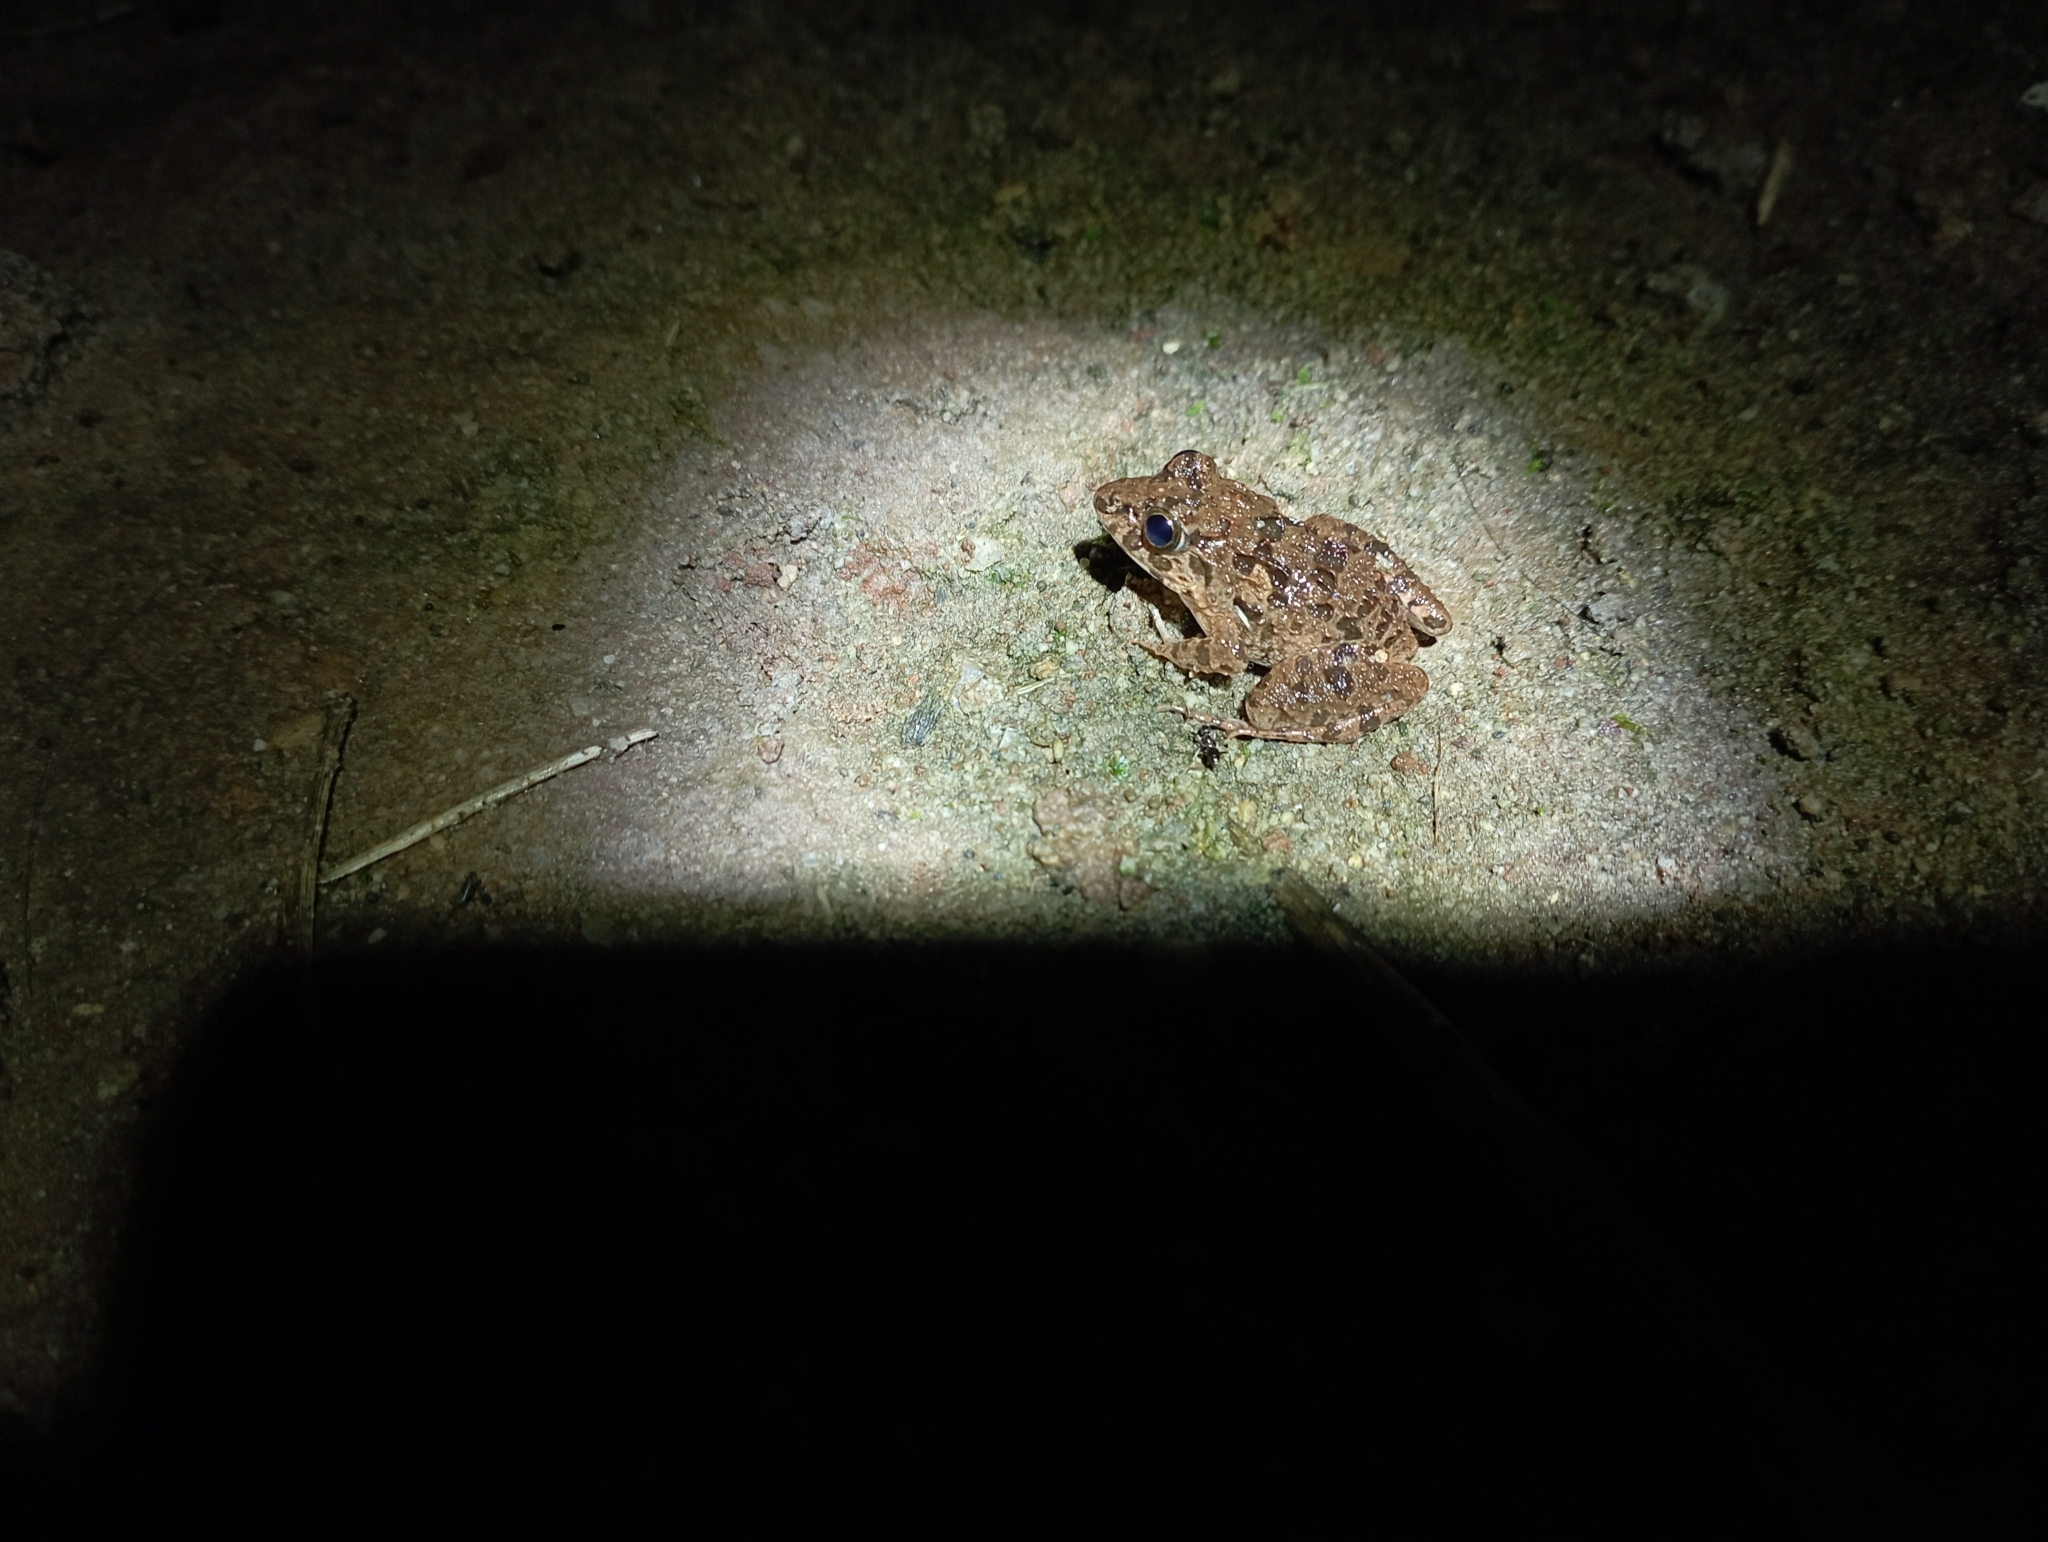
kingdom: Animalia
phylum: Chordata
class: Amphibia
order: Anura
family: Dicroglossidae
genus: Fejervarya
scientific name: Fejervarya limnocharis
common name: Asian grass frog/common pond frog/field frog/grass frog/indian rice frog
